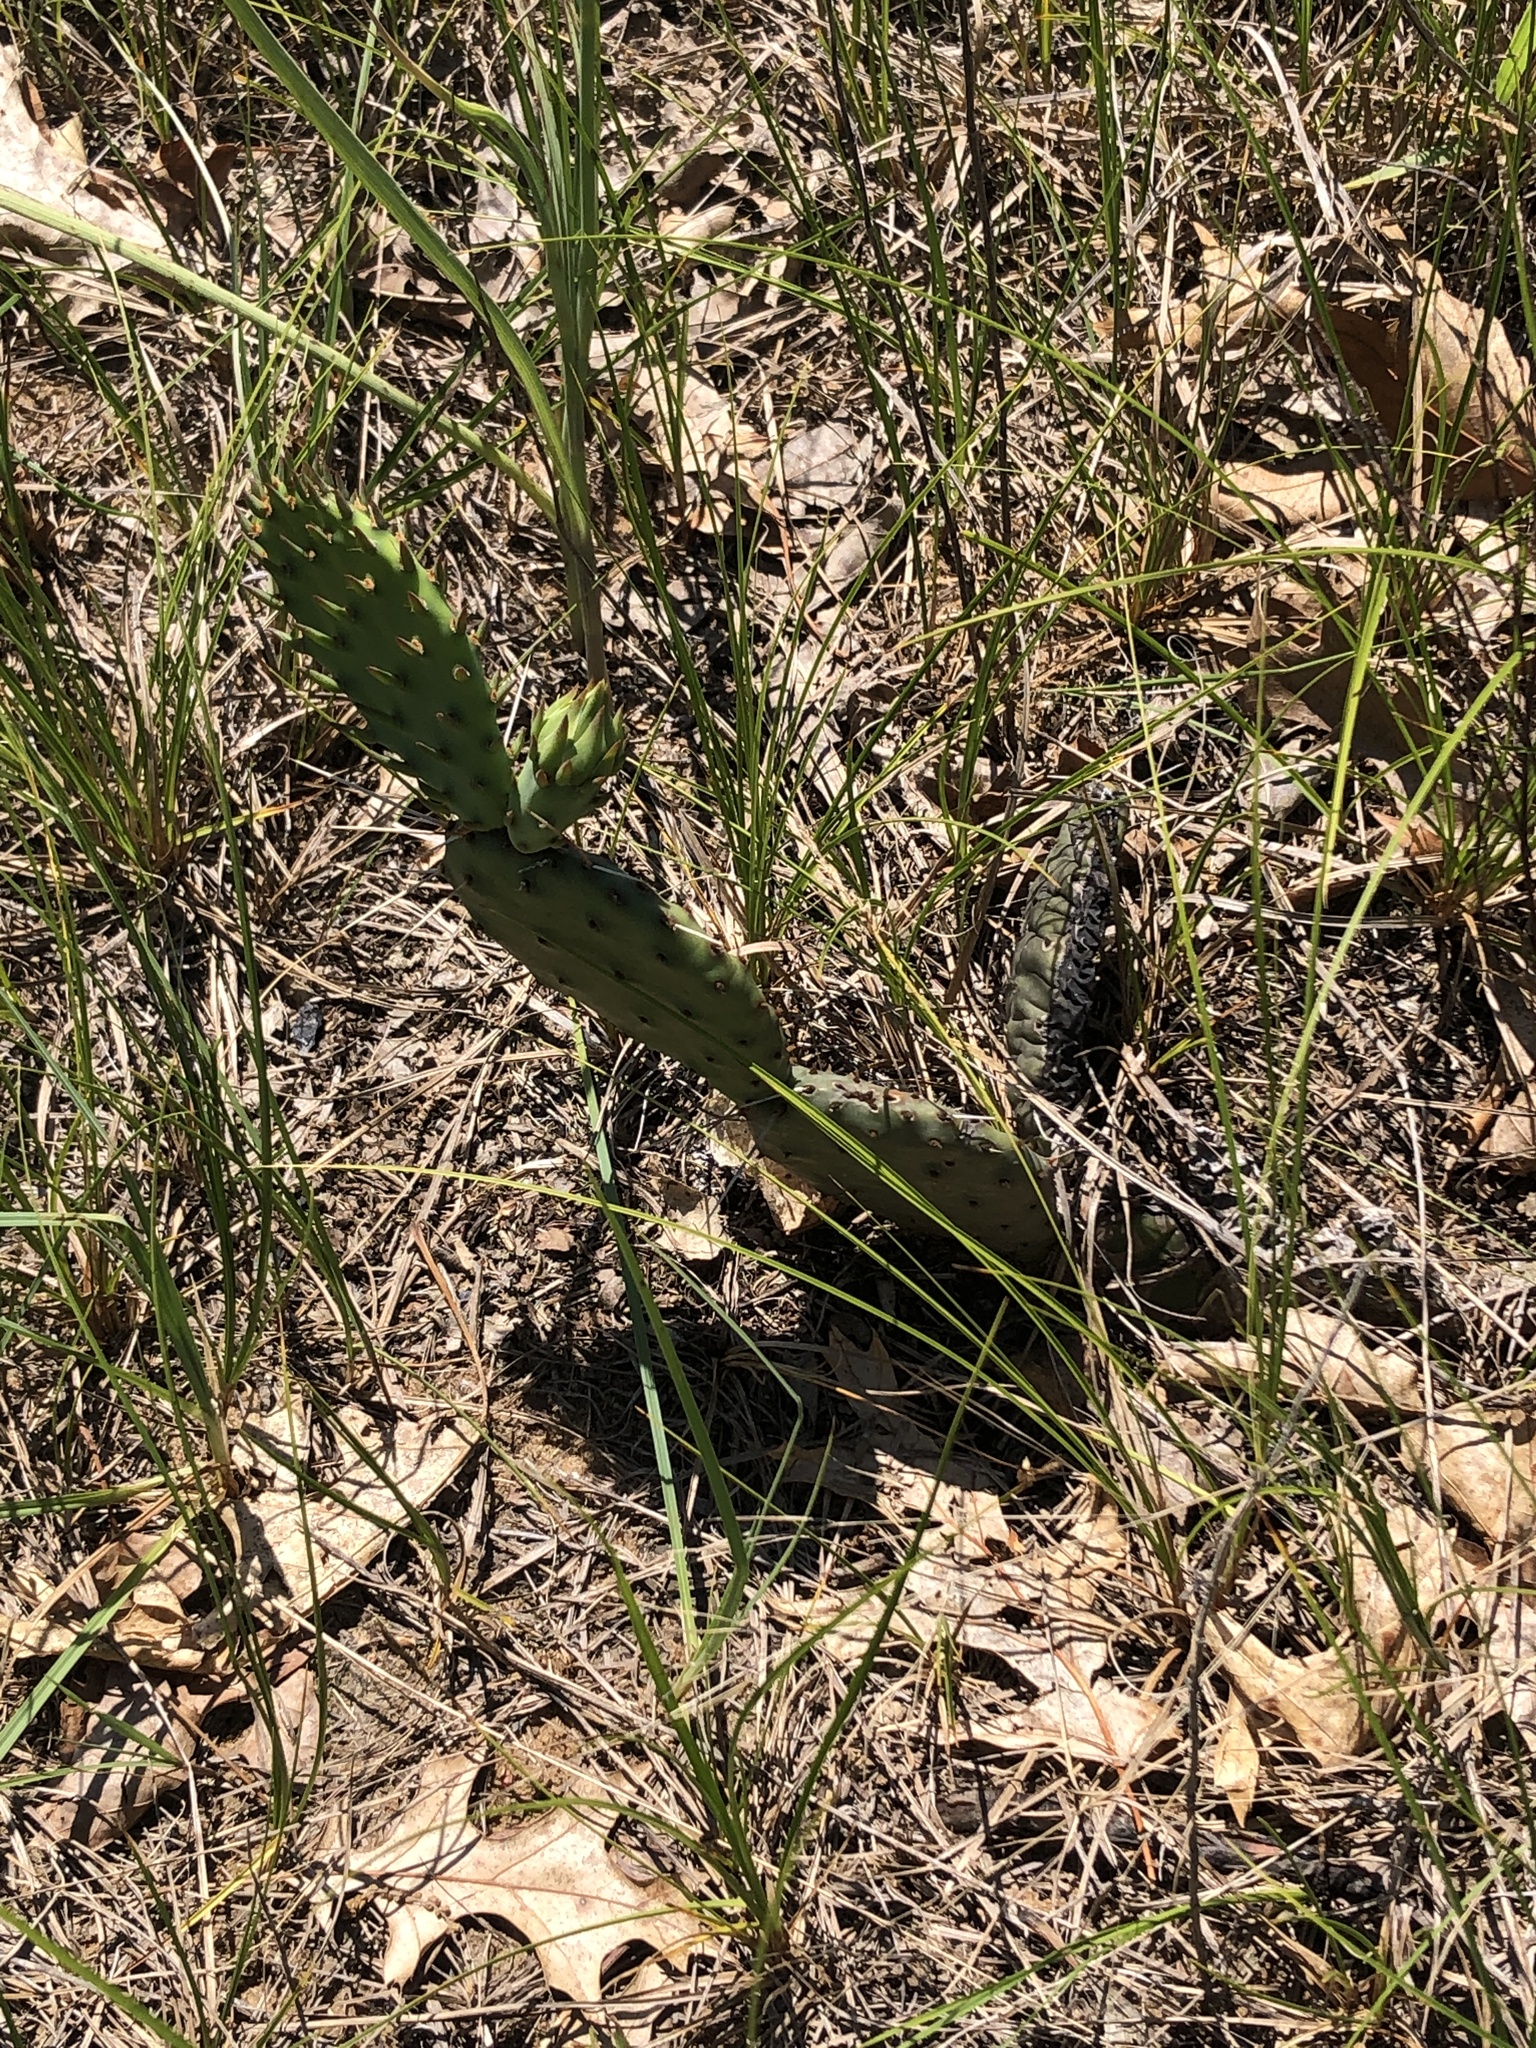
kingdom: Plantae
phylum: Tracheophyta
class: Magnoliopsida
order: Caryophyllales
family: Cactaceae
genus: Opuntia
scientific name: Opuntia humifusa
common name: Eastern prickly-pear
